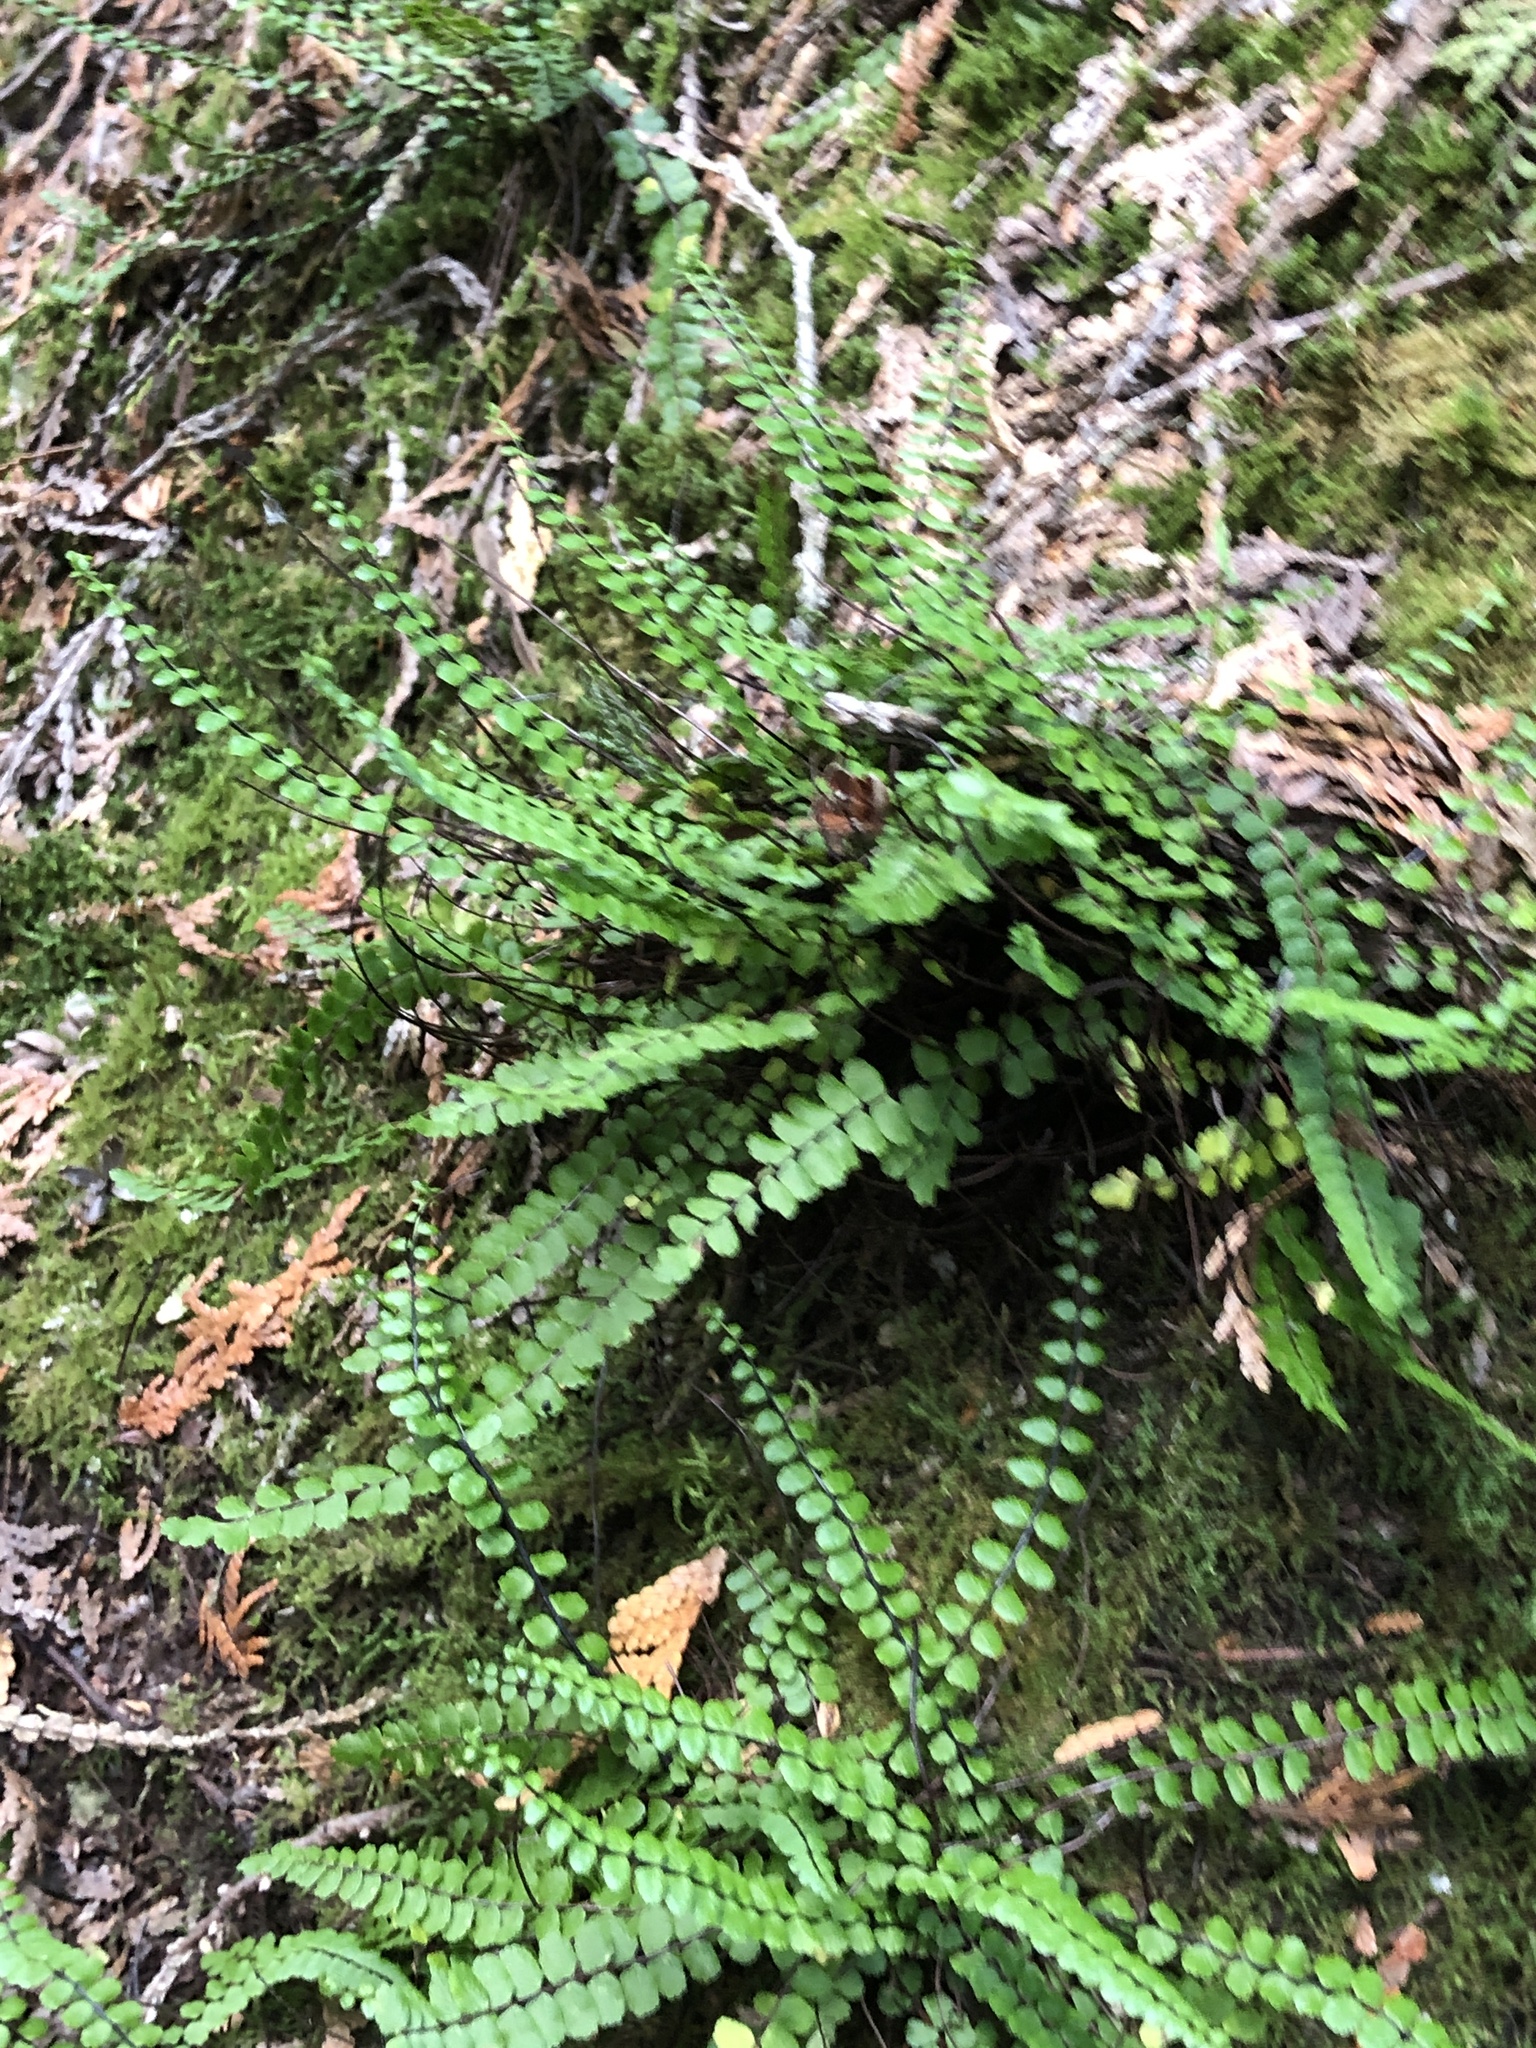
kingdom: Plantae
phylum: Tracheophyta
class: Polypodiopsida
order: Polypodiales
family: Aspleniaceae
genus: Asplenium
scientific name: Asplenium trichomanes
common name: Maidenhair spleenwort
